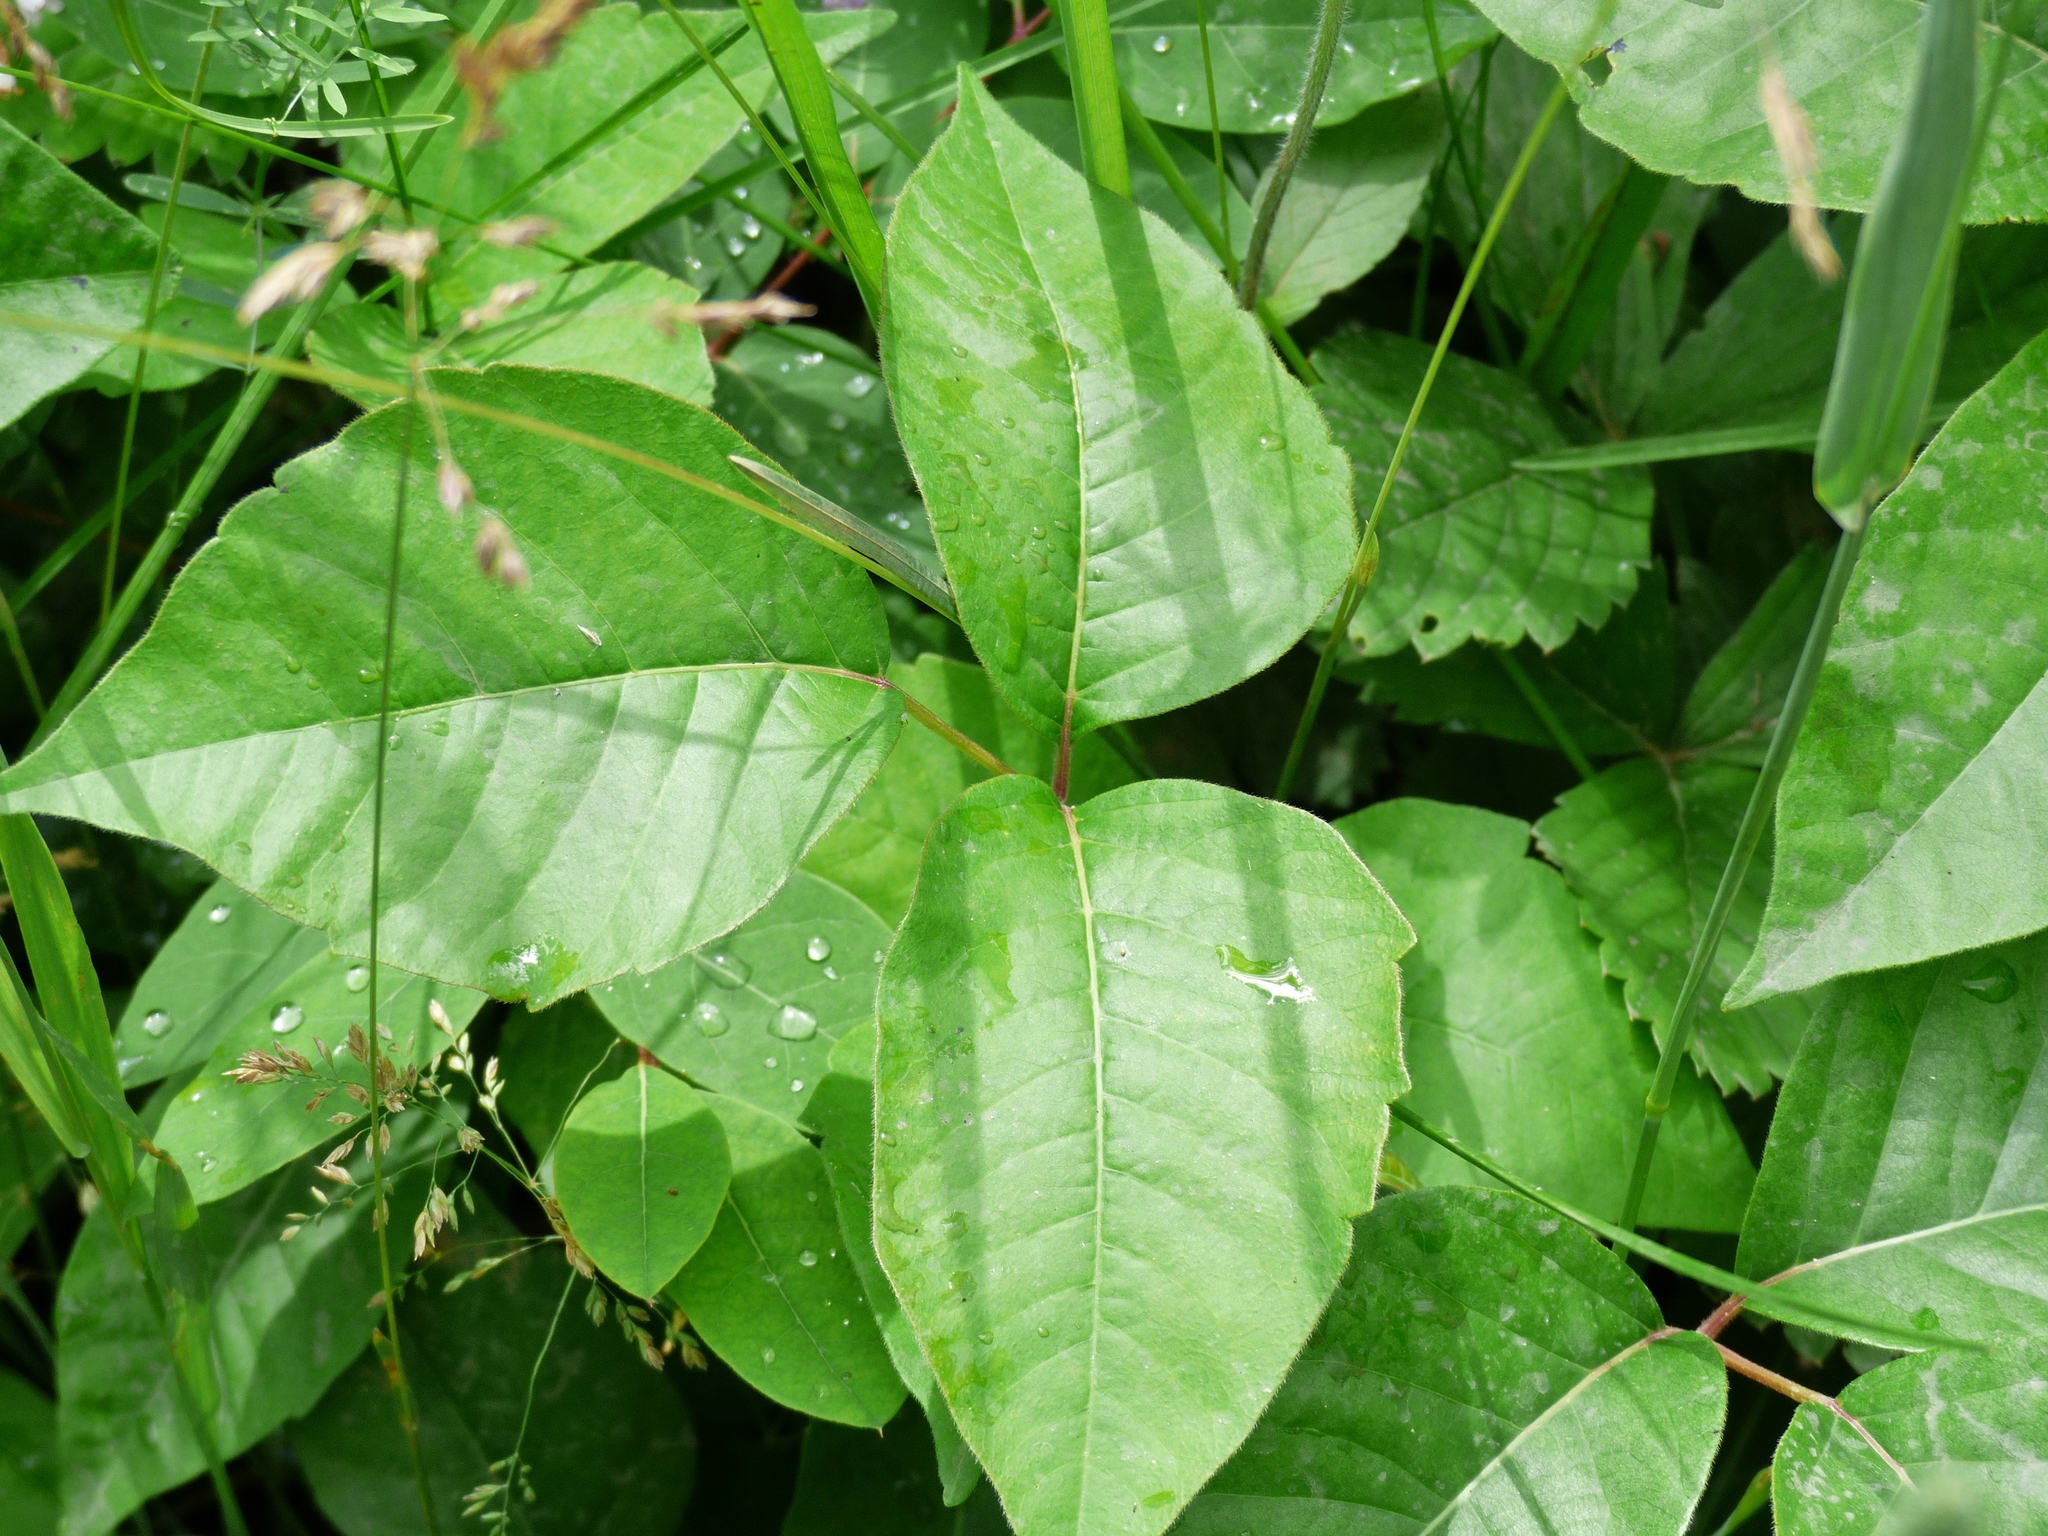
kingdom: Plantae
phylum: Tracheophyta
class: Magnoliopsida
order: Sapindales
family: Anacardiaceae
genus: Toxicodendron
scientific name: Toxicodendron radicans
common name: Poison ivy
